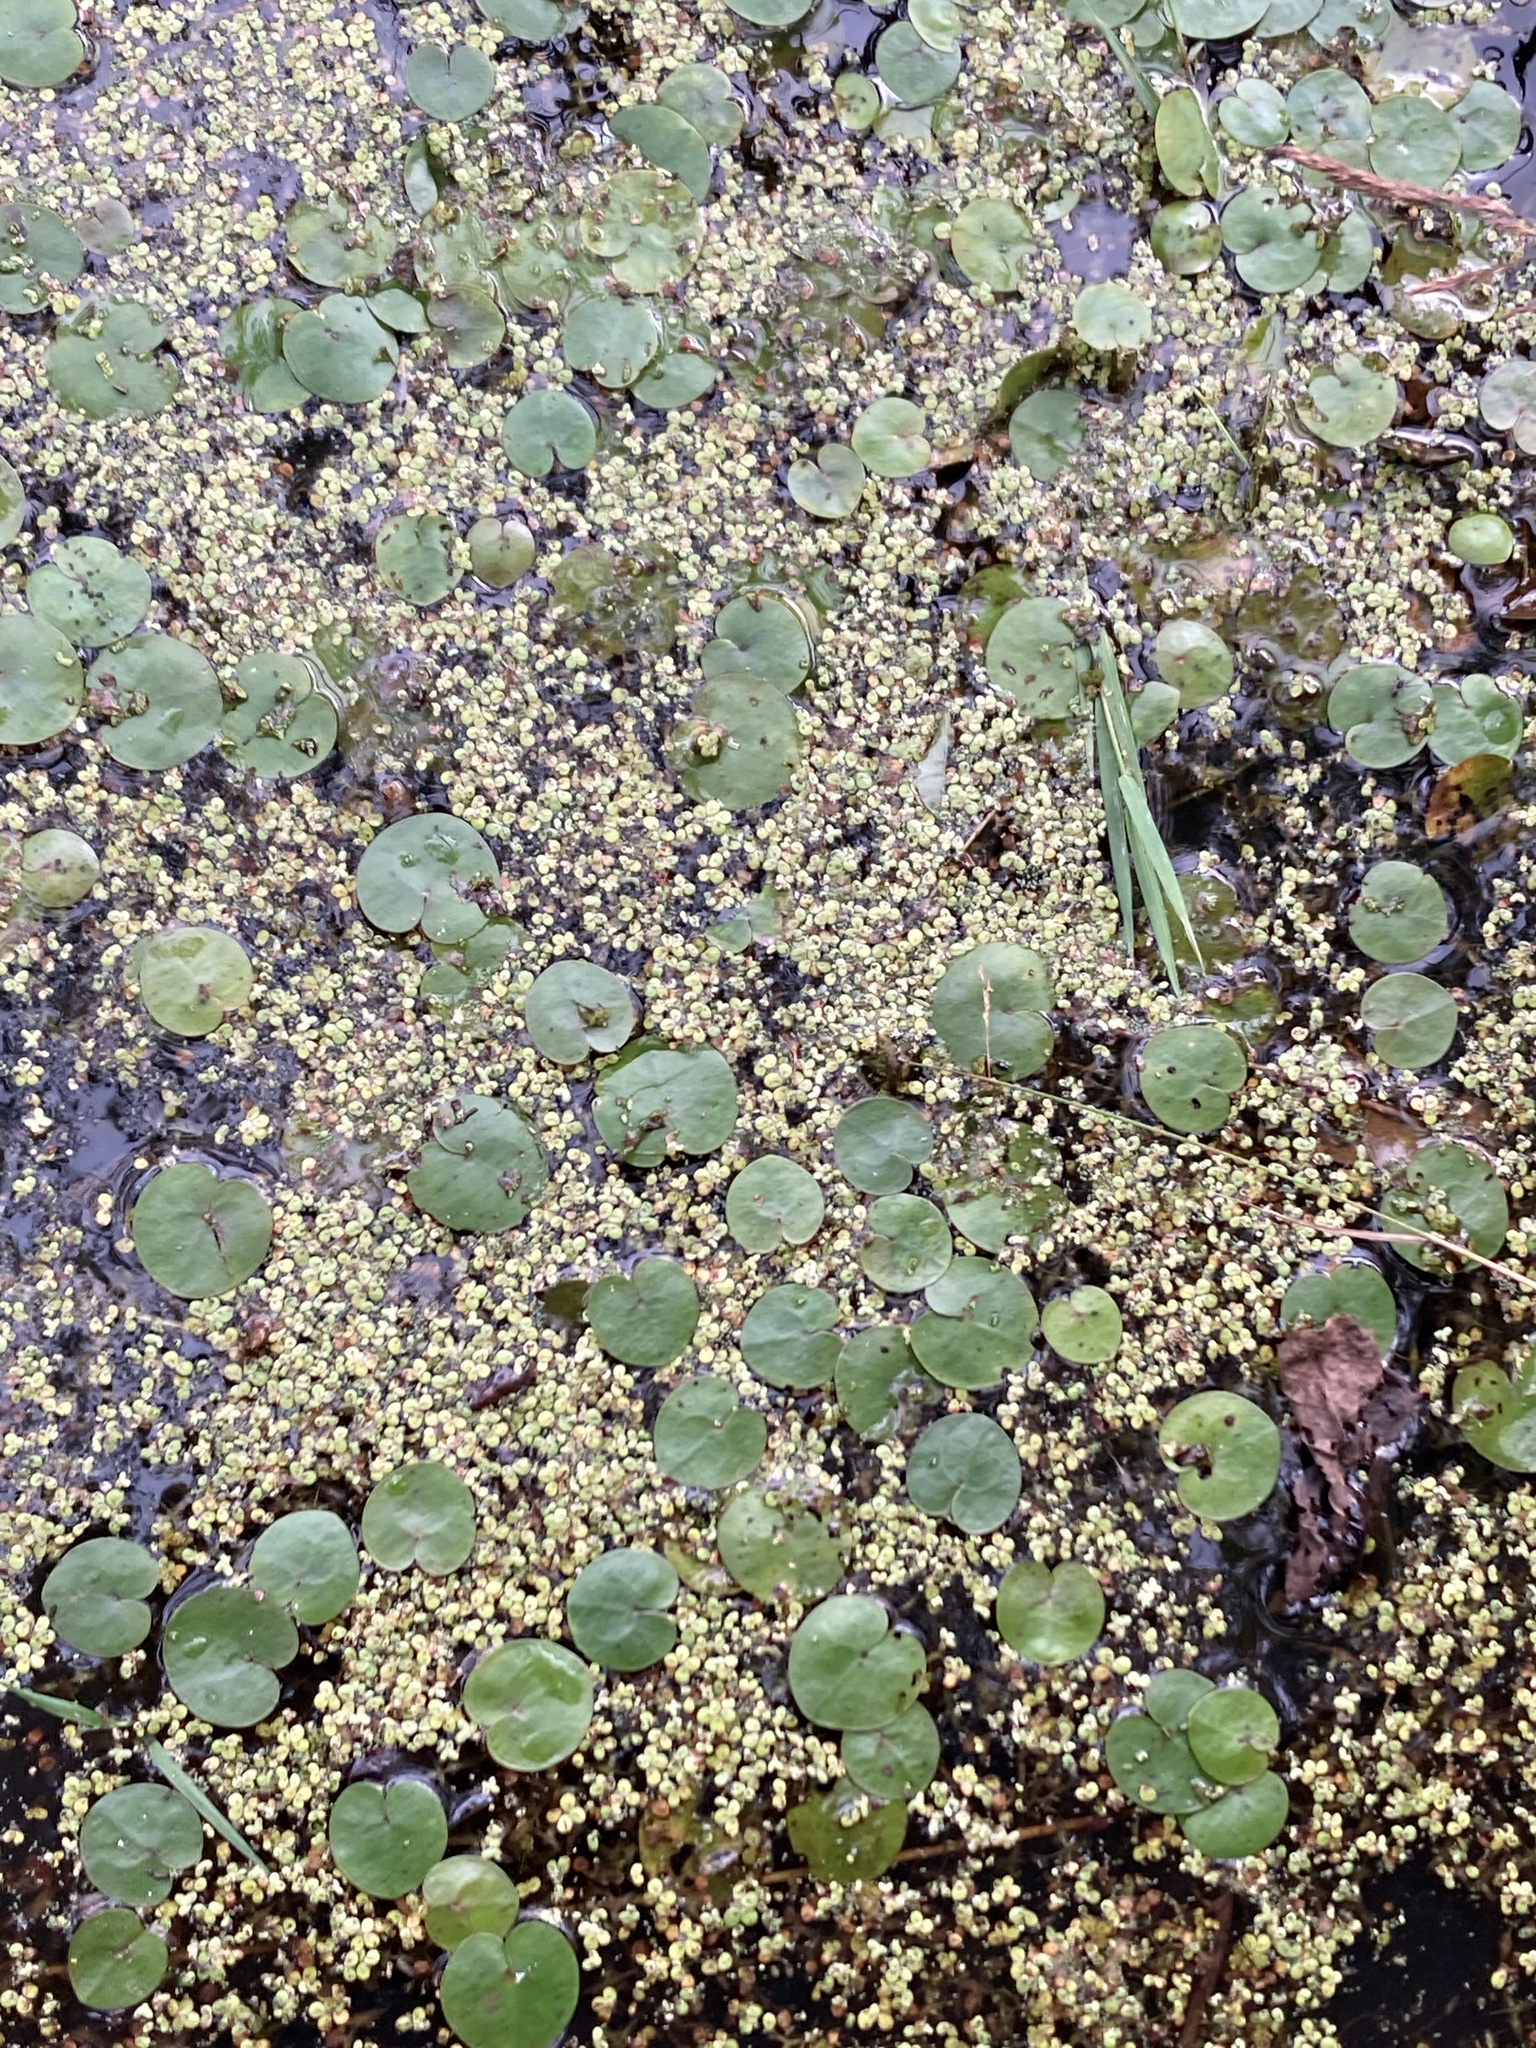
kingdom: Plantae
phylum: Tracheophyta
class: Liliopsida
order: Alismatales
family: Hydrocharitaceae
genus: Hydrocharis
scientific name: Hydrocharis morsus-ranae
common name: Frogbit
